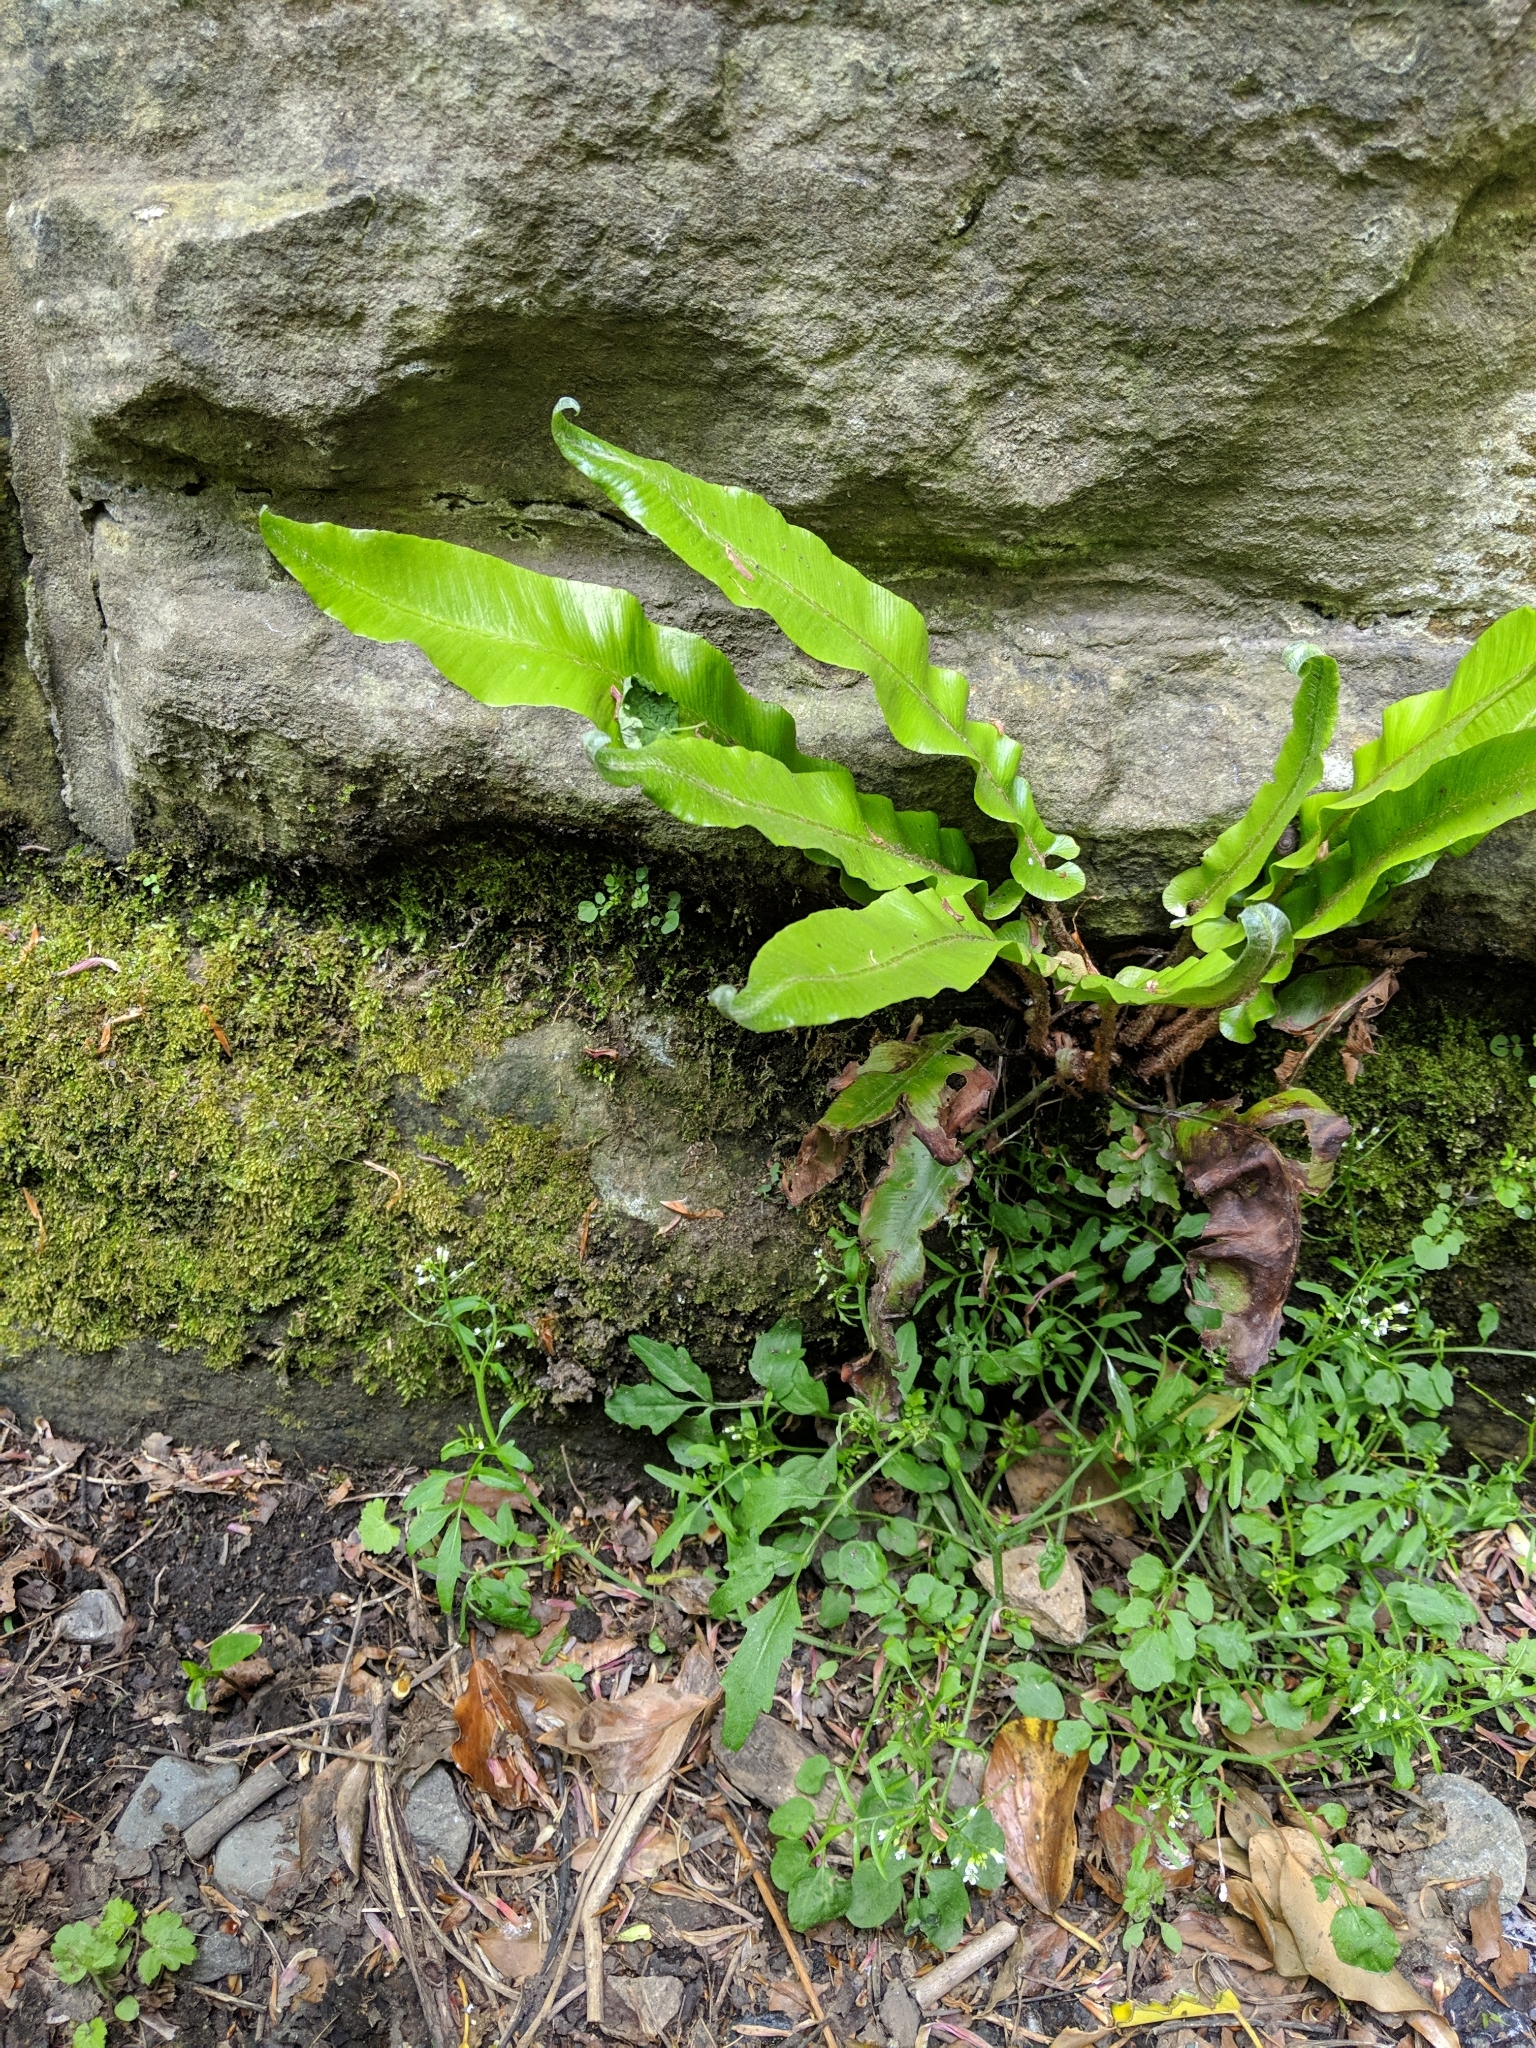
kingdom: Plantae
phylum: Tracheophyta
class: Polypodiopsida
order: Polypodiales
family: Aspleniaceae
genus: Asplenium
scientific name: Asplenium scolopendrium
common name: Hart's-tongue fern
